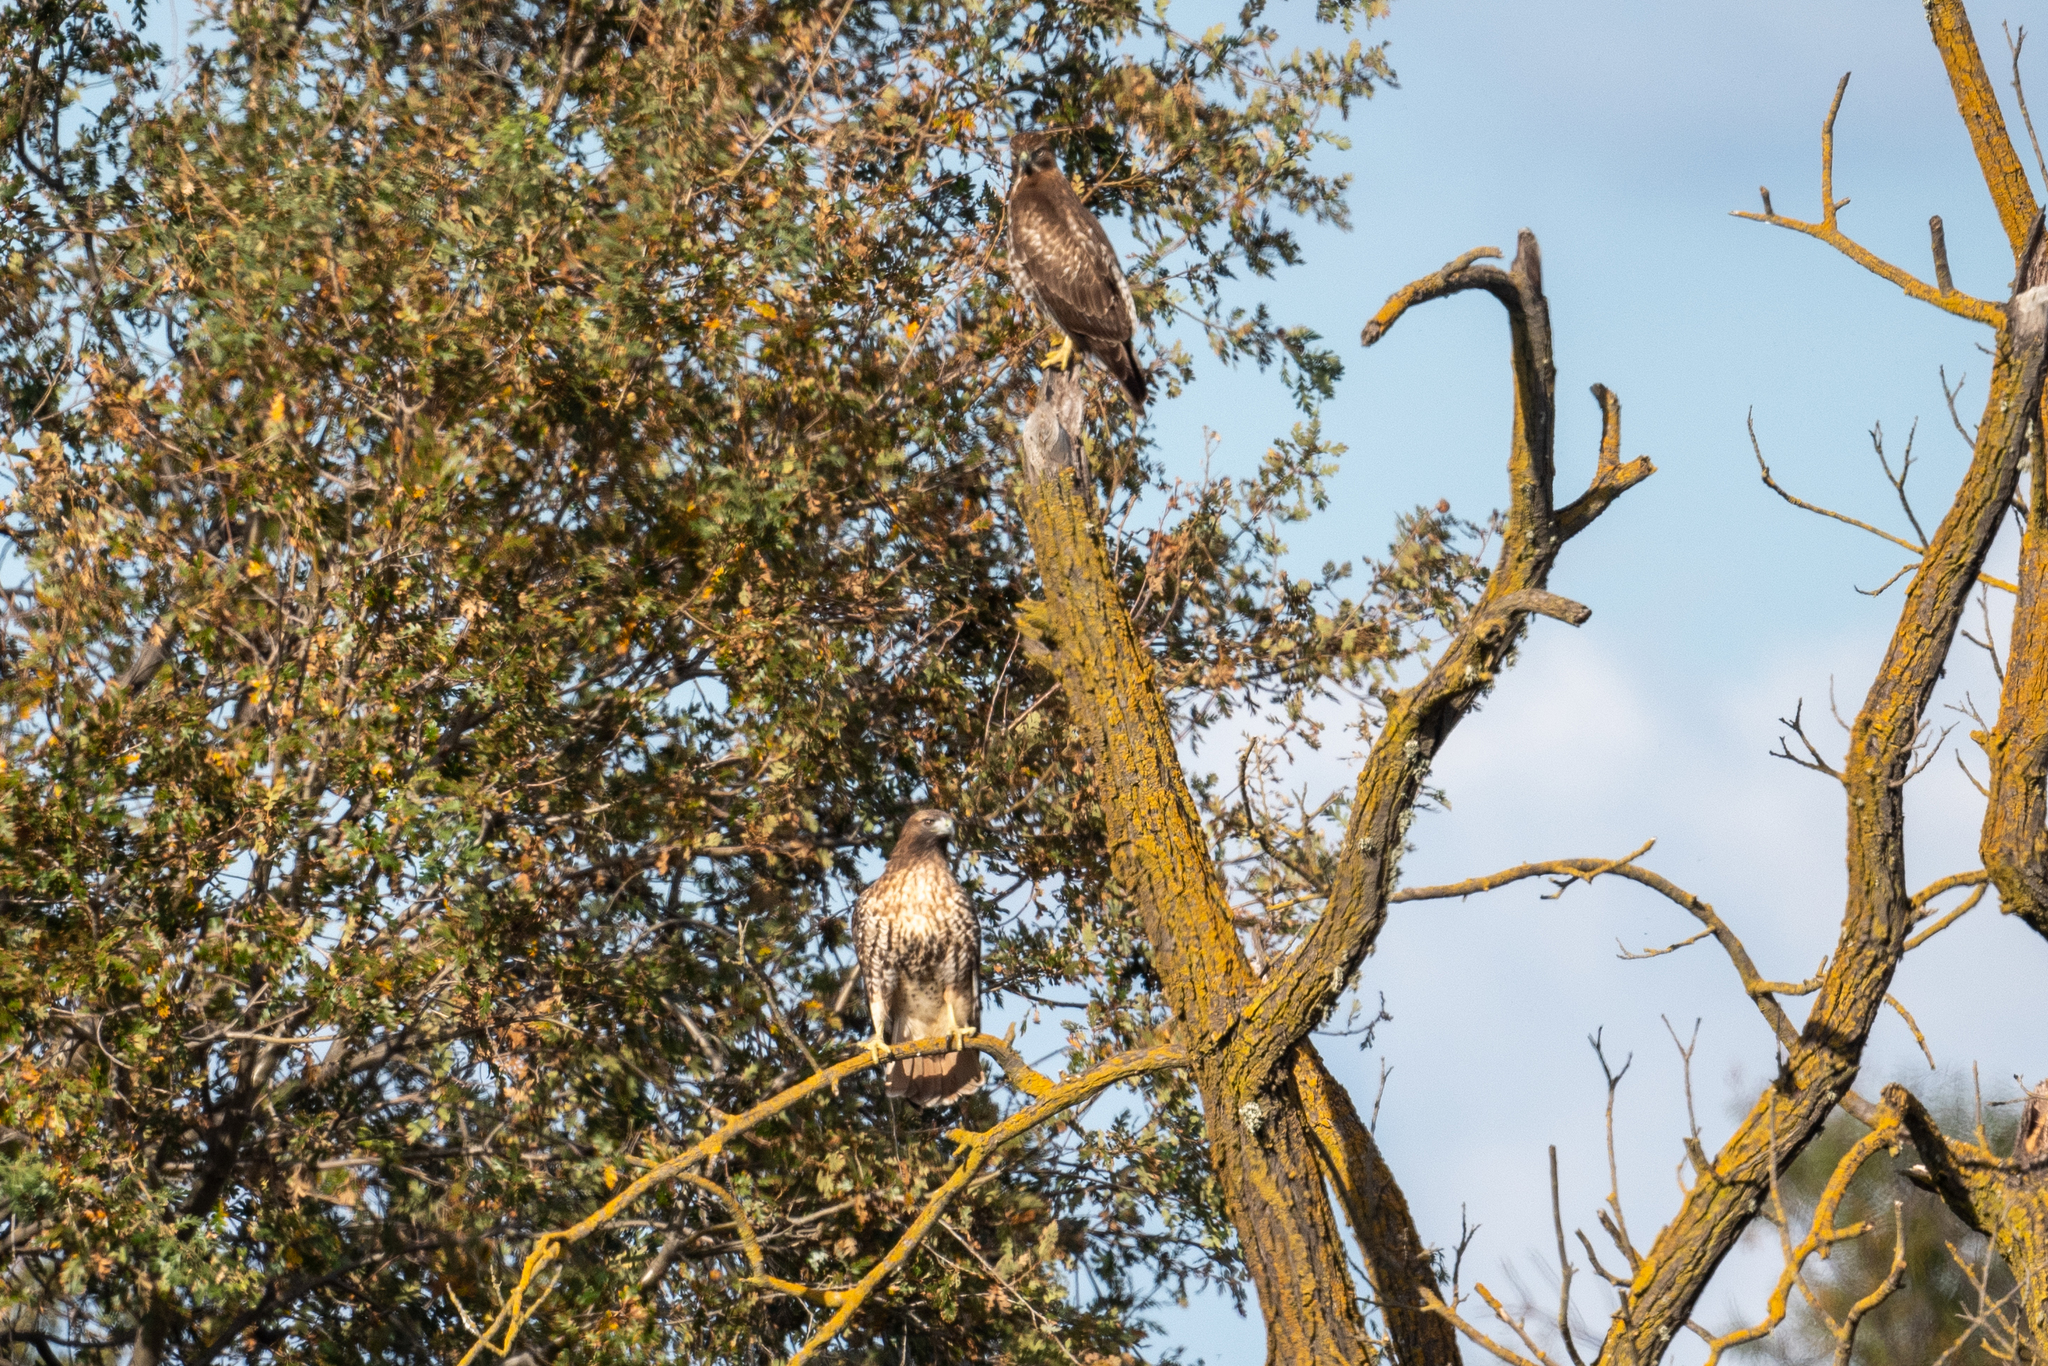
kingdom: Animalia
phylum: Chordata
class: Aves
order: Accipitriformes
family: Accipitridae
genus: Buteo
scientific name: Buteo jamaicensis
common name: Red-tailed hawk
